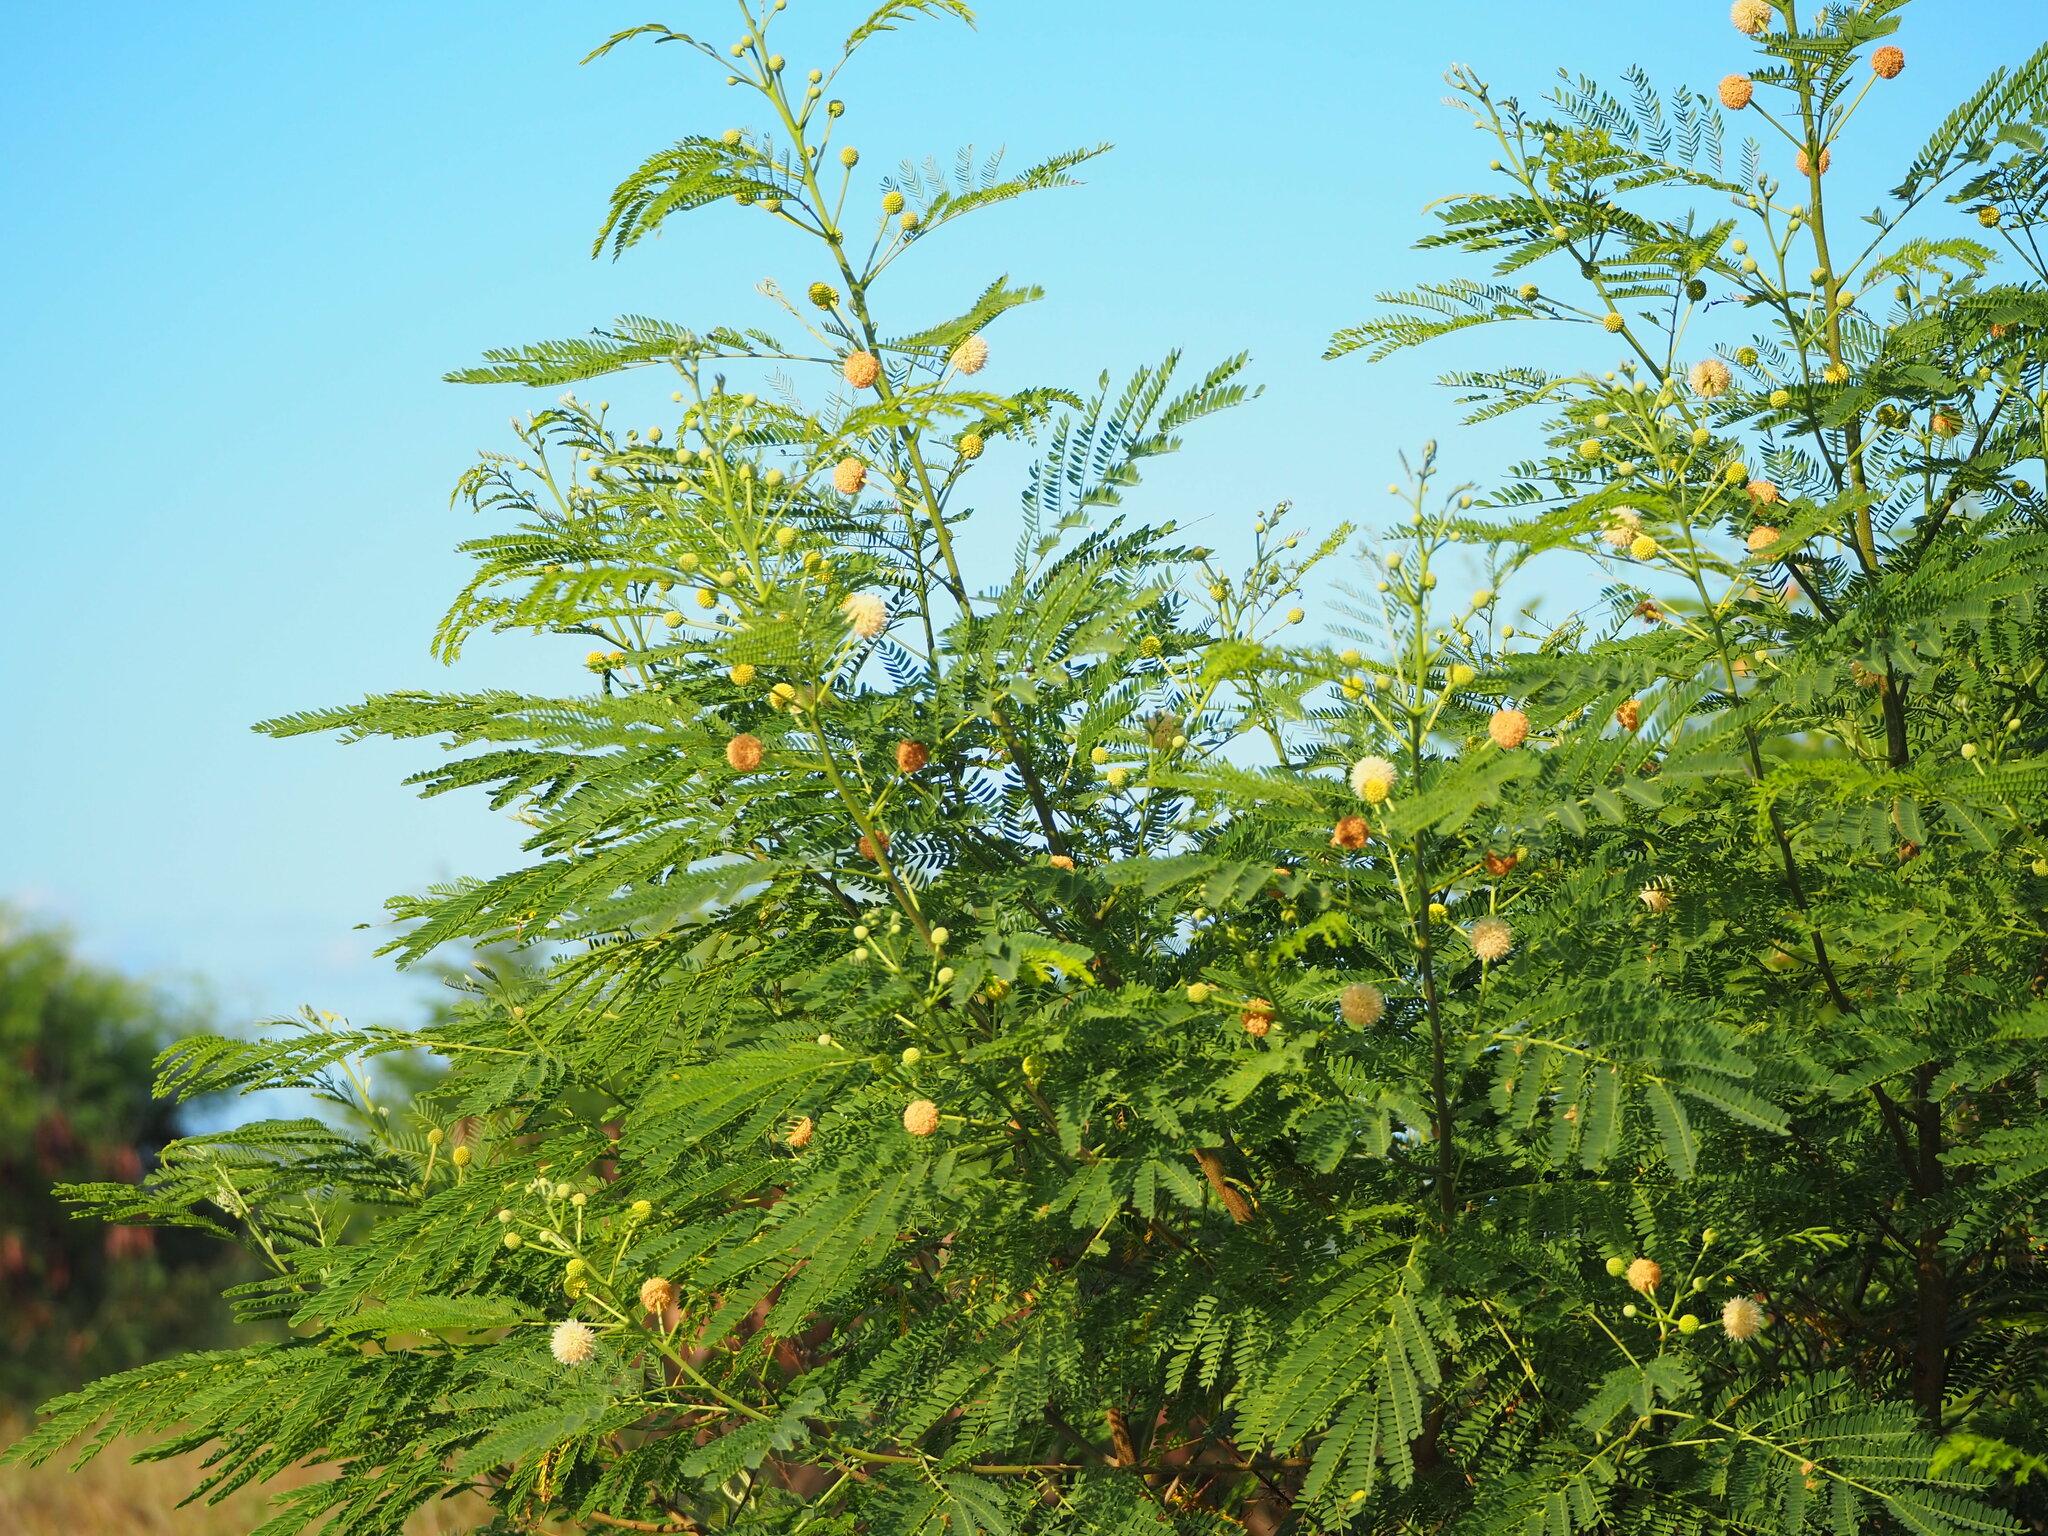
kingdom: Plantae
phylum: Tracheophyta
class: Magnoliopsida
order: Fabales
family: Fabaceae
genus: Leucaena
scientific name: Leucaena leucocephala
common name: White leadtree
